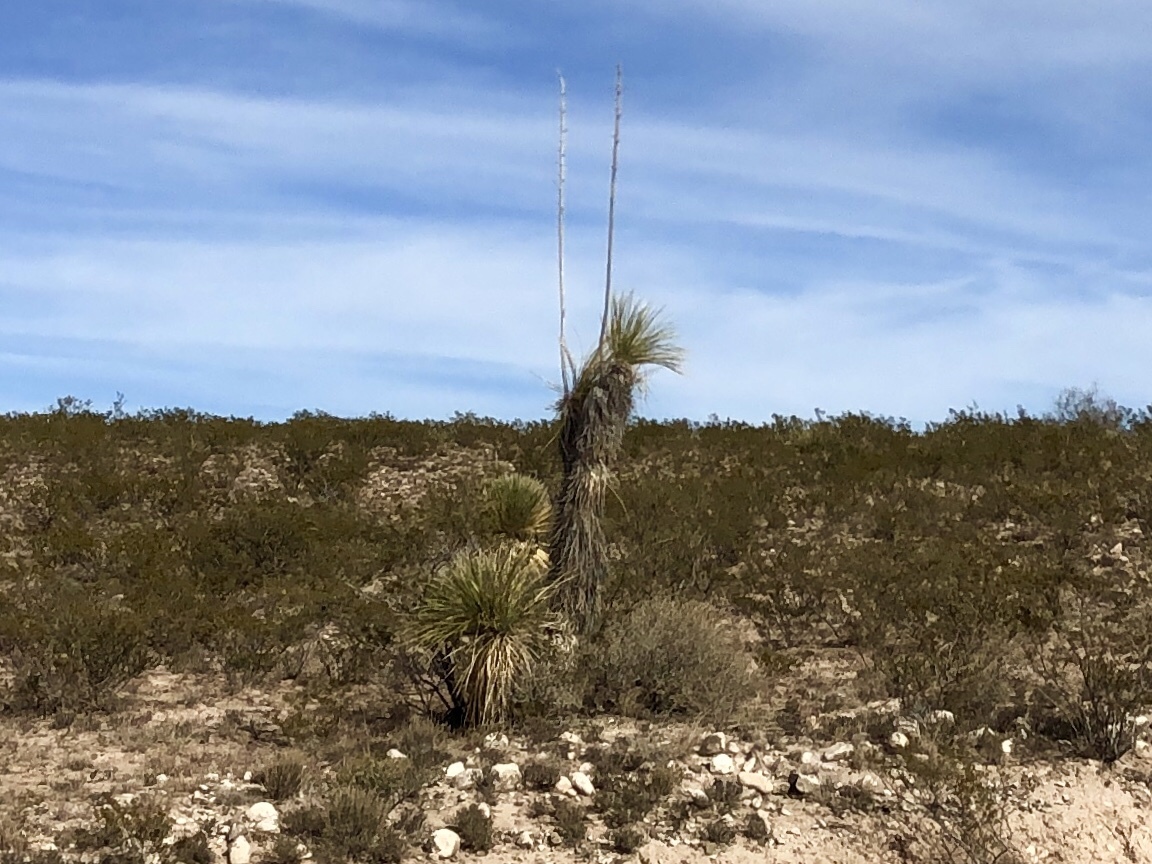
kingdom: Plantae
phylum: Tracheophyta
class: Liliopsida
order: Asparagales
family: Asparagaceae
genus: Yucca
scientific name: Yucca elata
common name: Palmella
